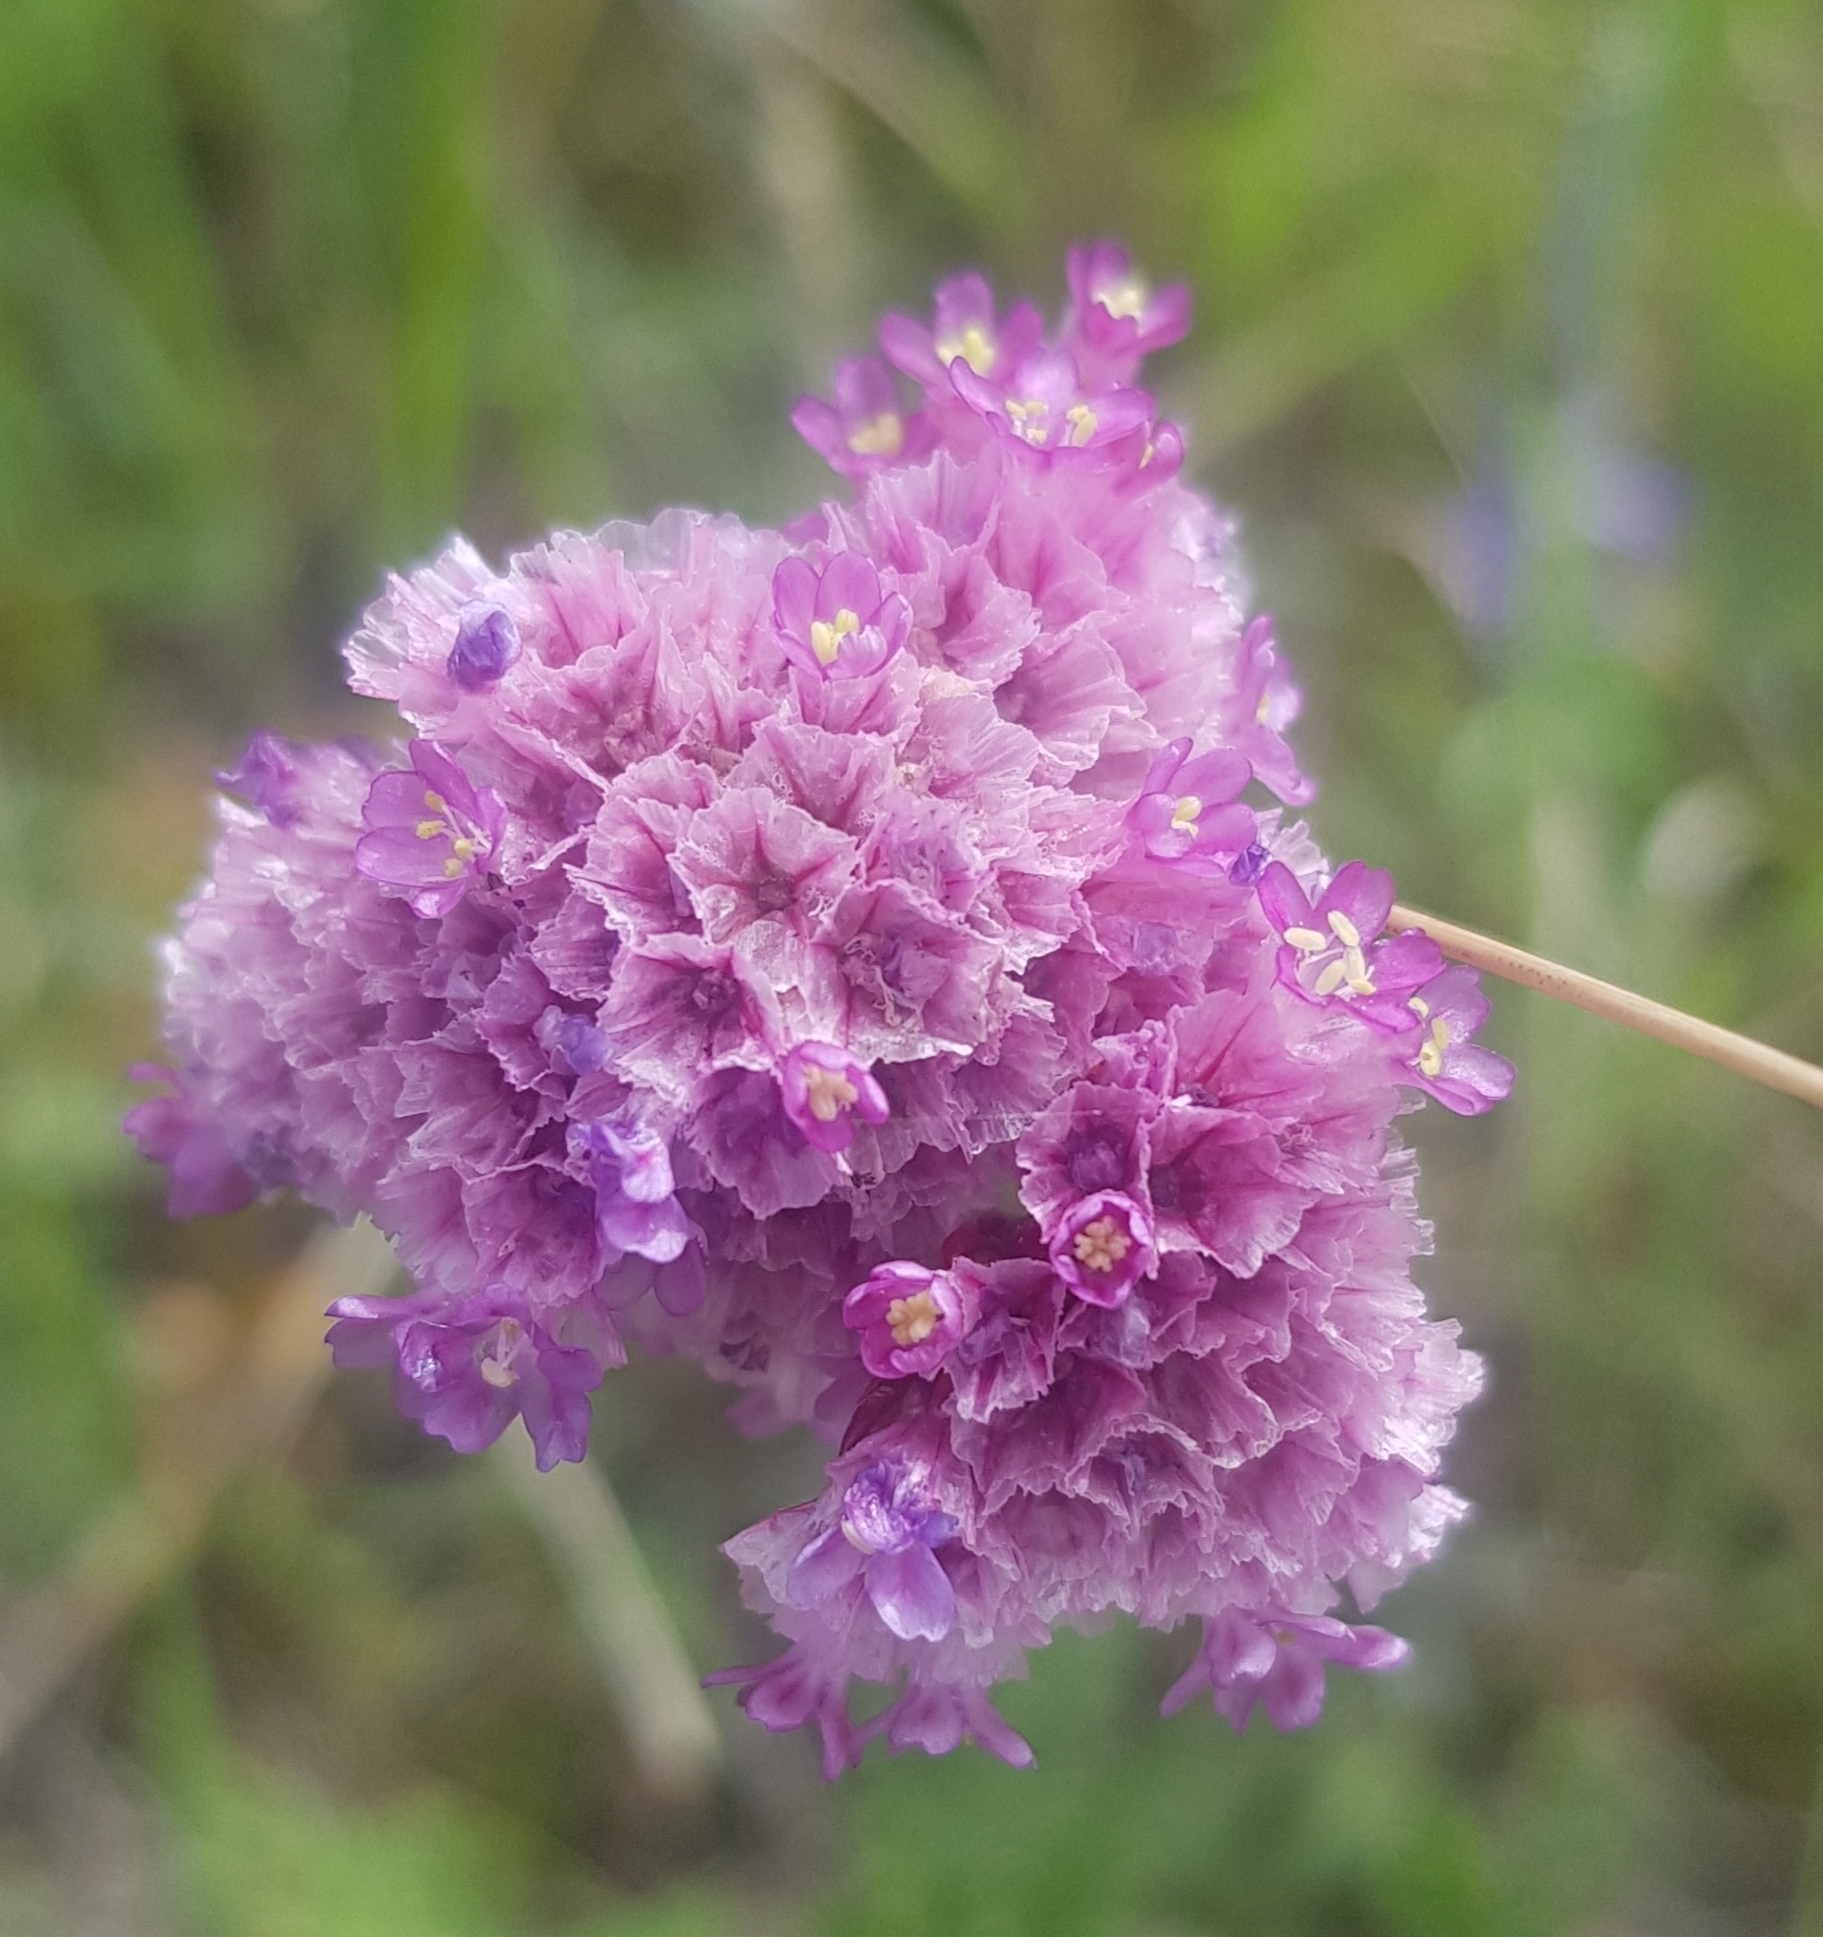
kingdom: Plantae
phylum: Tracheophyta
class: Magnoliopsida
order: Caryophyllales
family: Plumbaginaceae
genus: Goniolimon
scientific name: Goniolimon speciosum
